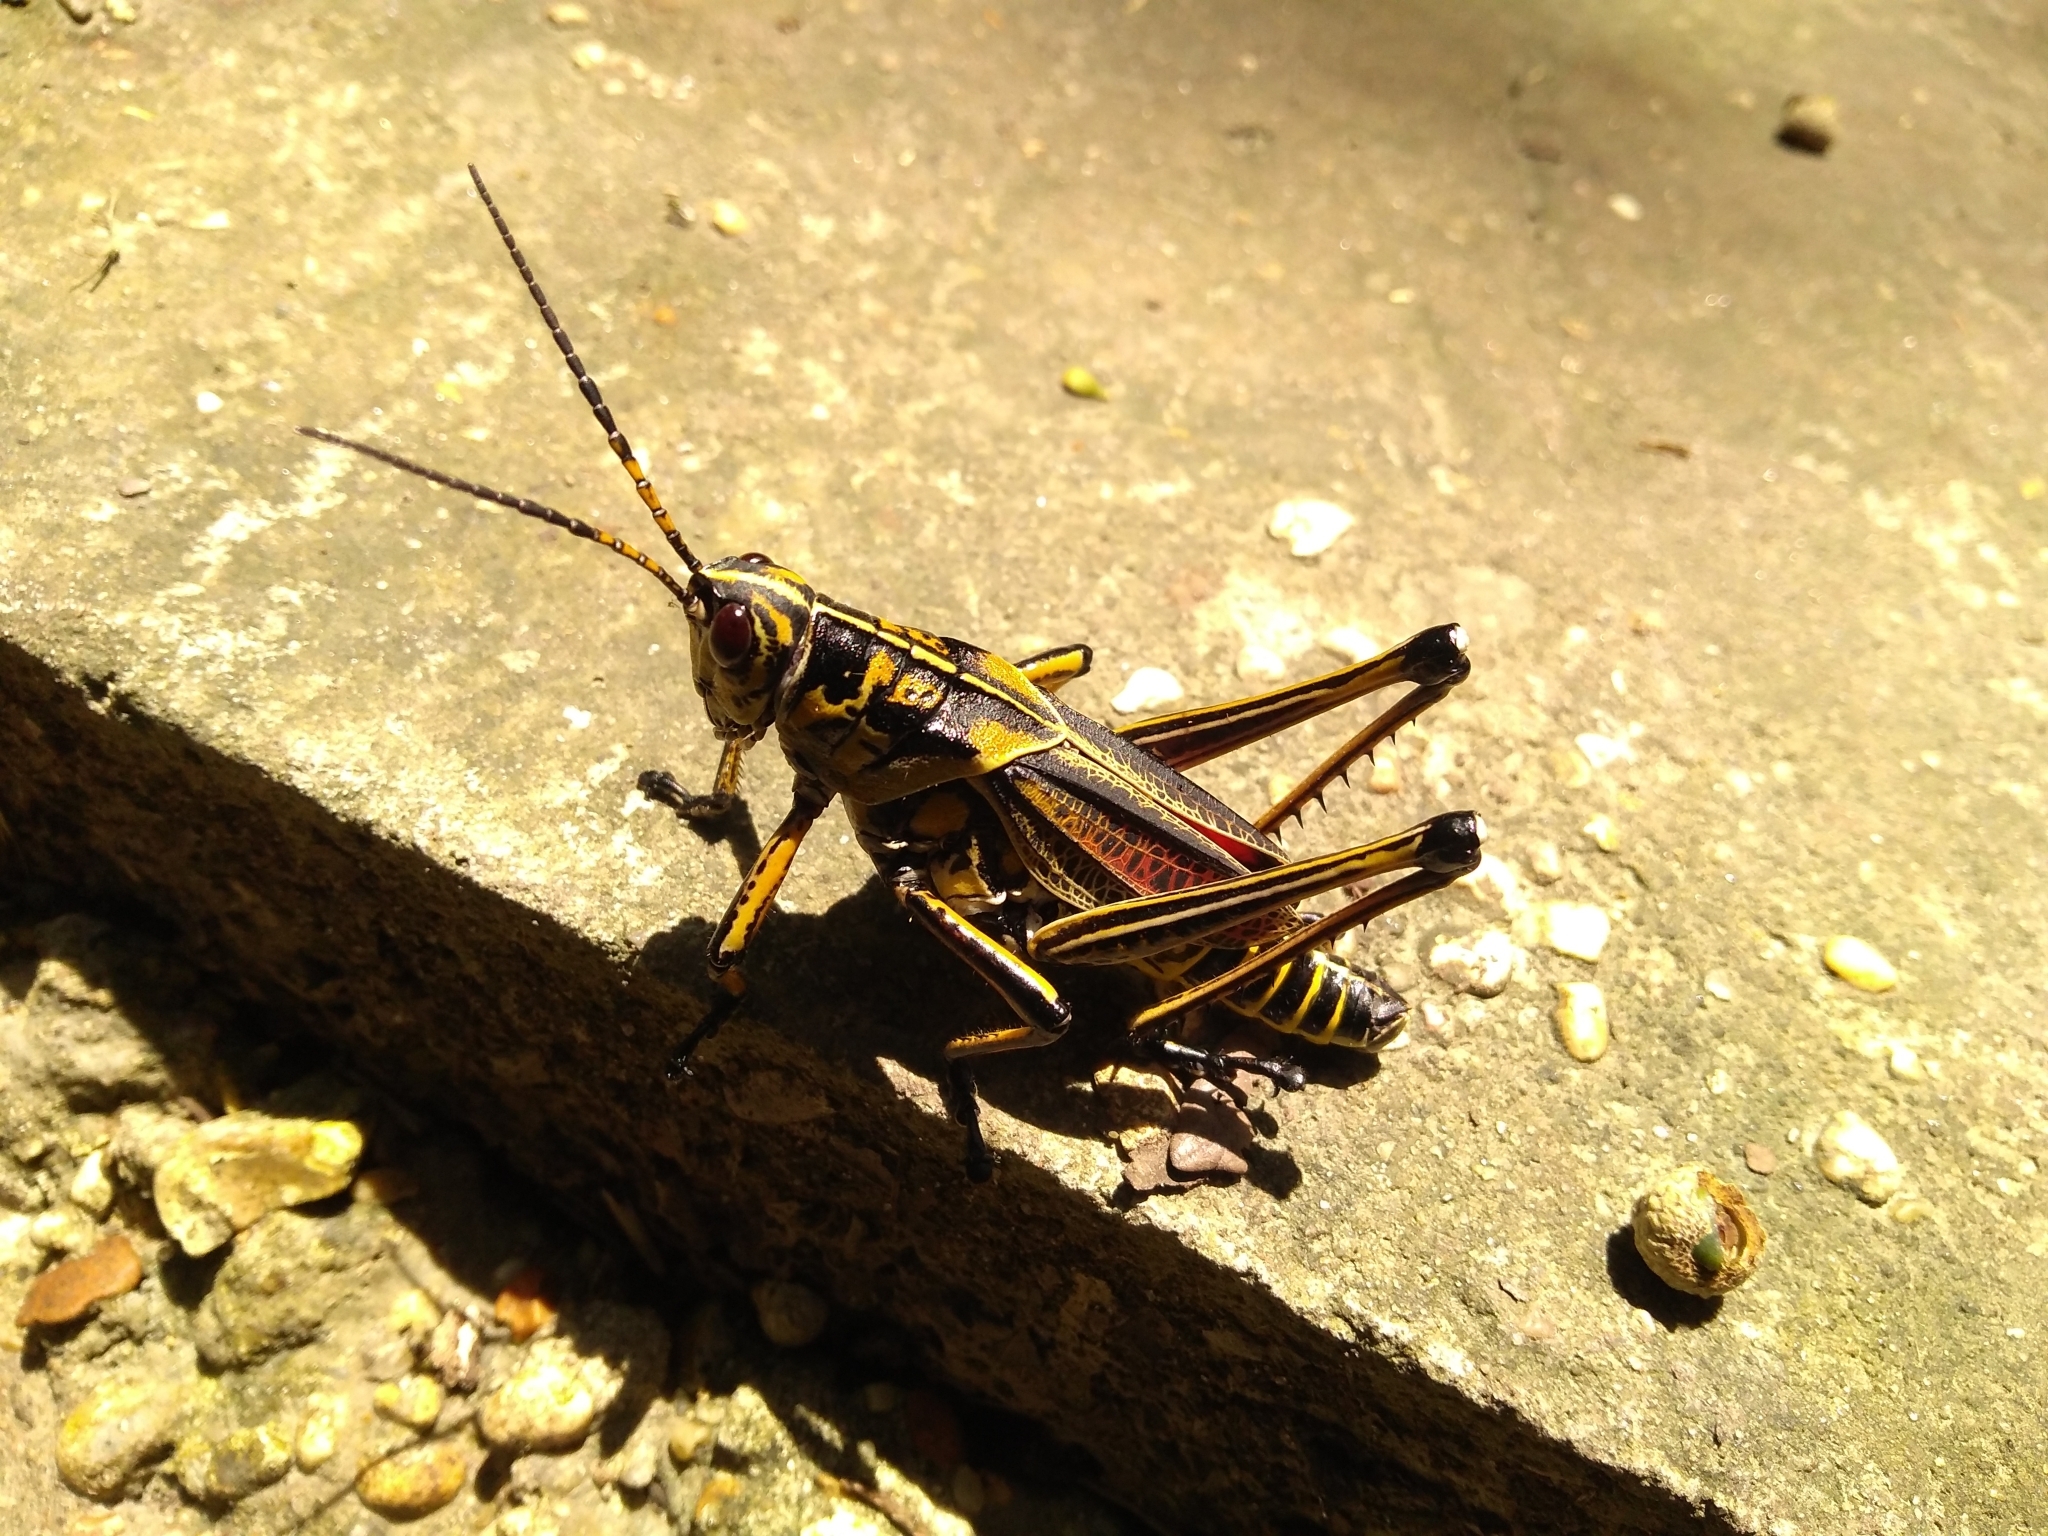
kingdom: Animalia
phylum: Arthropoda
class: Insecta
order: Orthoptera
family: Romaleidae
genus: Romalea
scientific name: Romalea microptera
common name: Eastern lubber grasshopper
